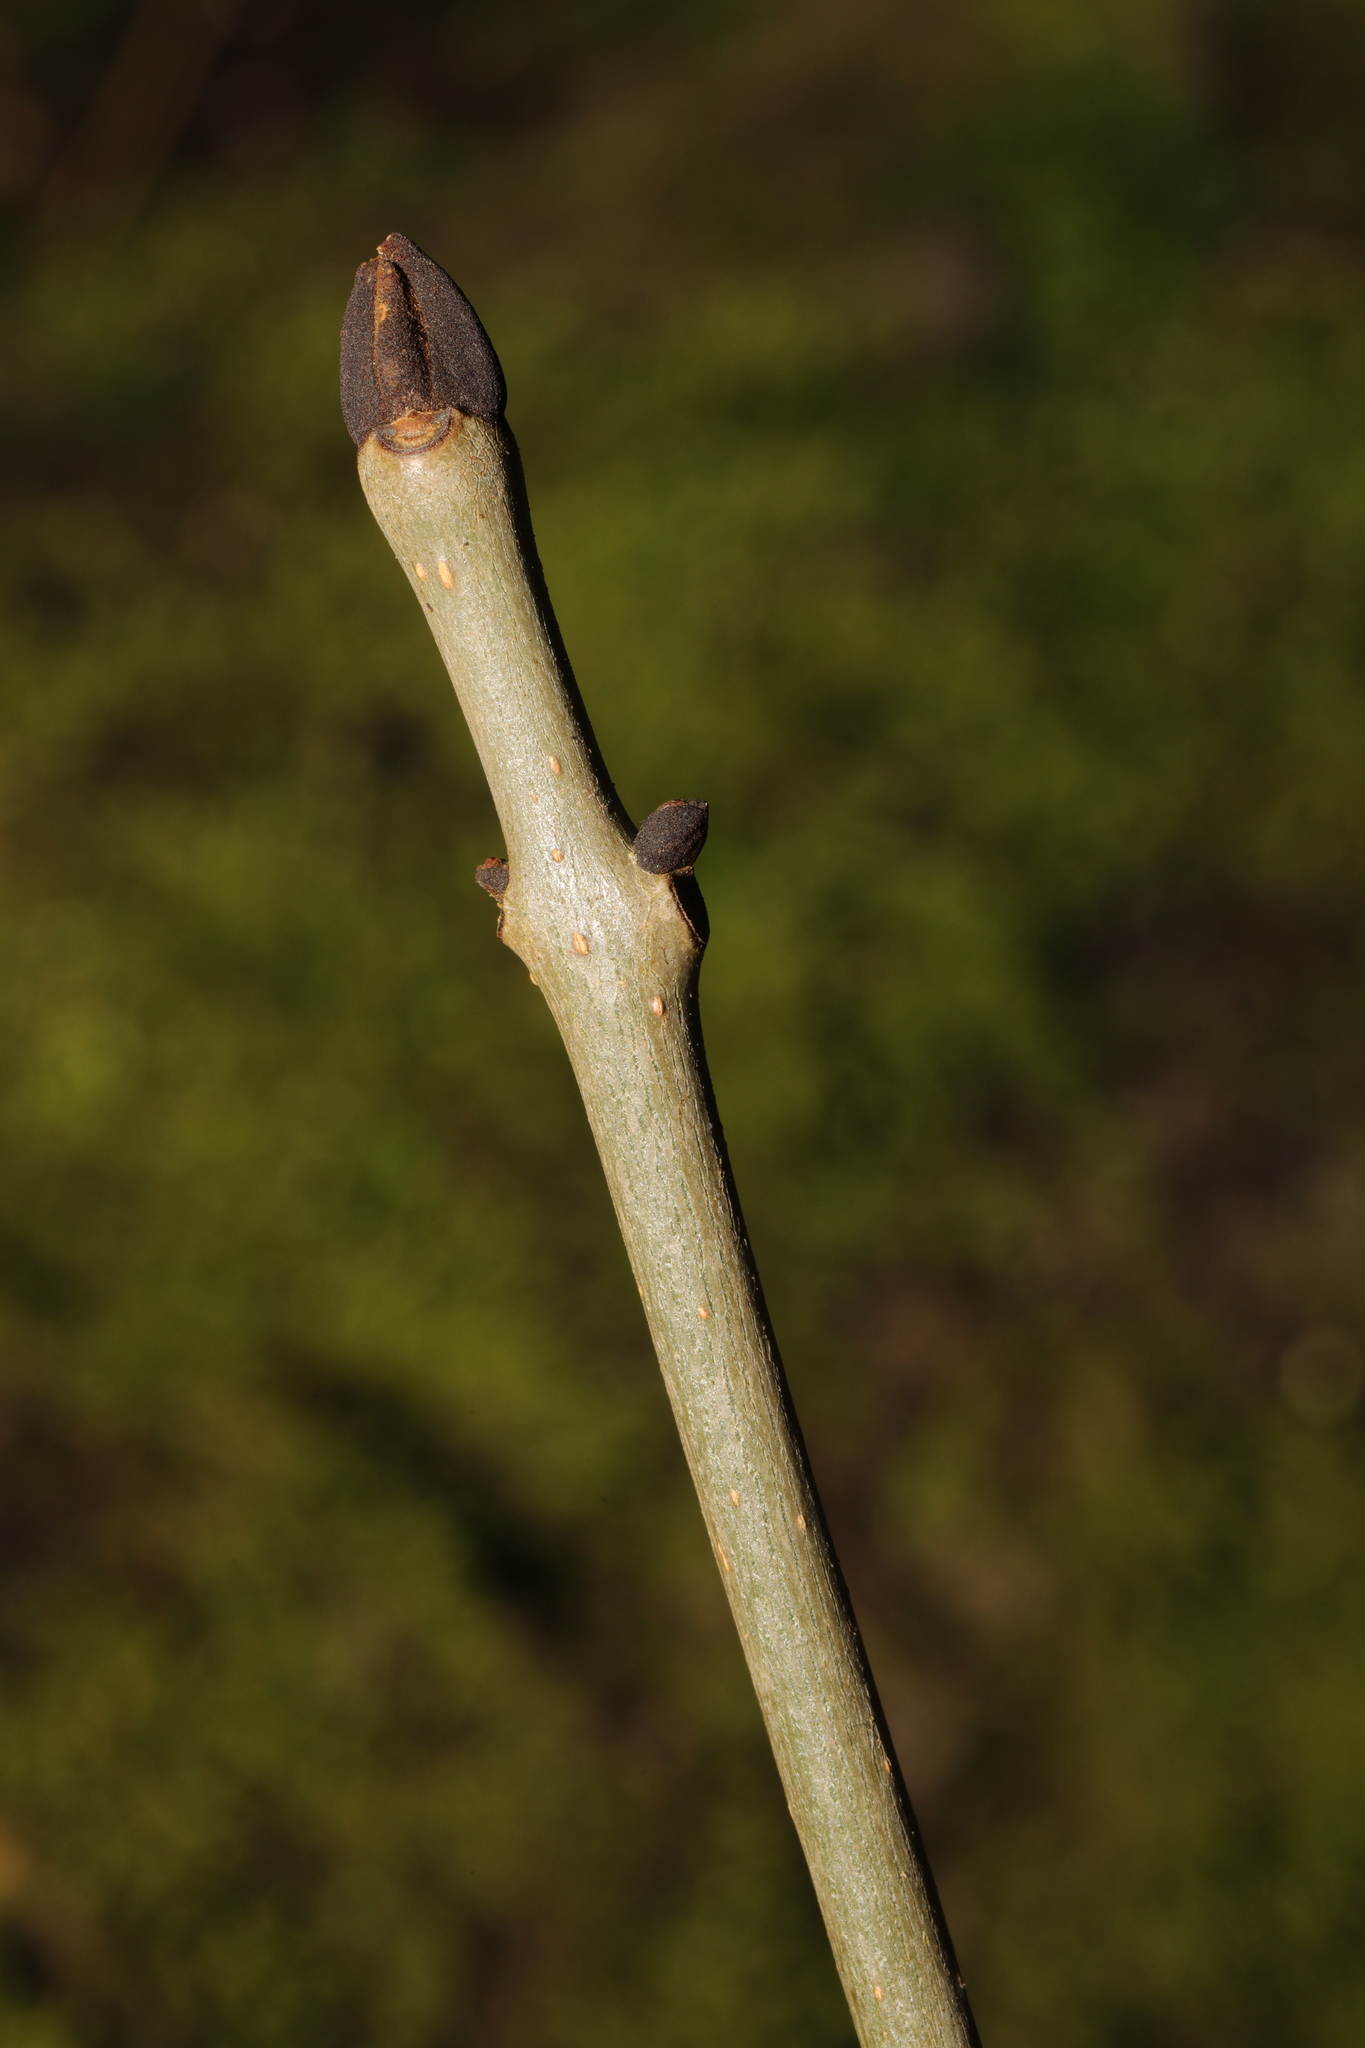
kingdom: Plantae
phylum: Tracheophyta
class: Magnoliopsida
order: Lamiales
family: Oleaceae
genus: Fraxinus
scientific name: Fraxinus excelsior
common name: European ash
